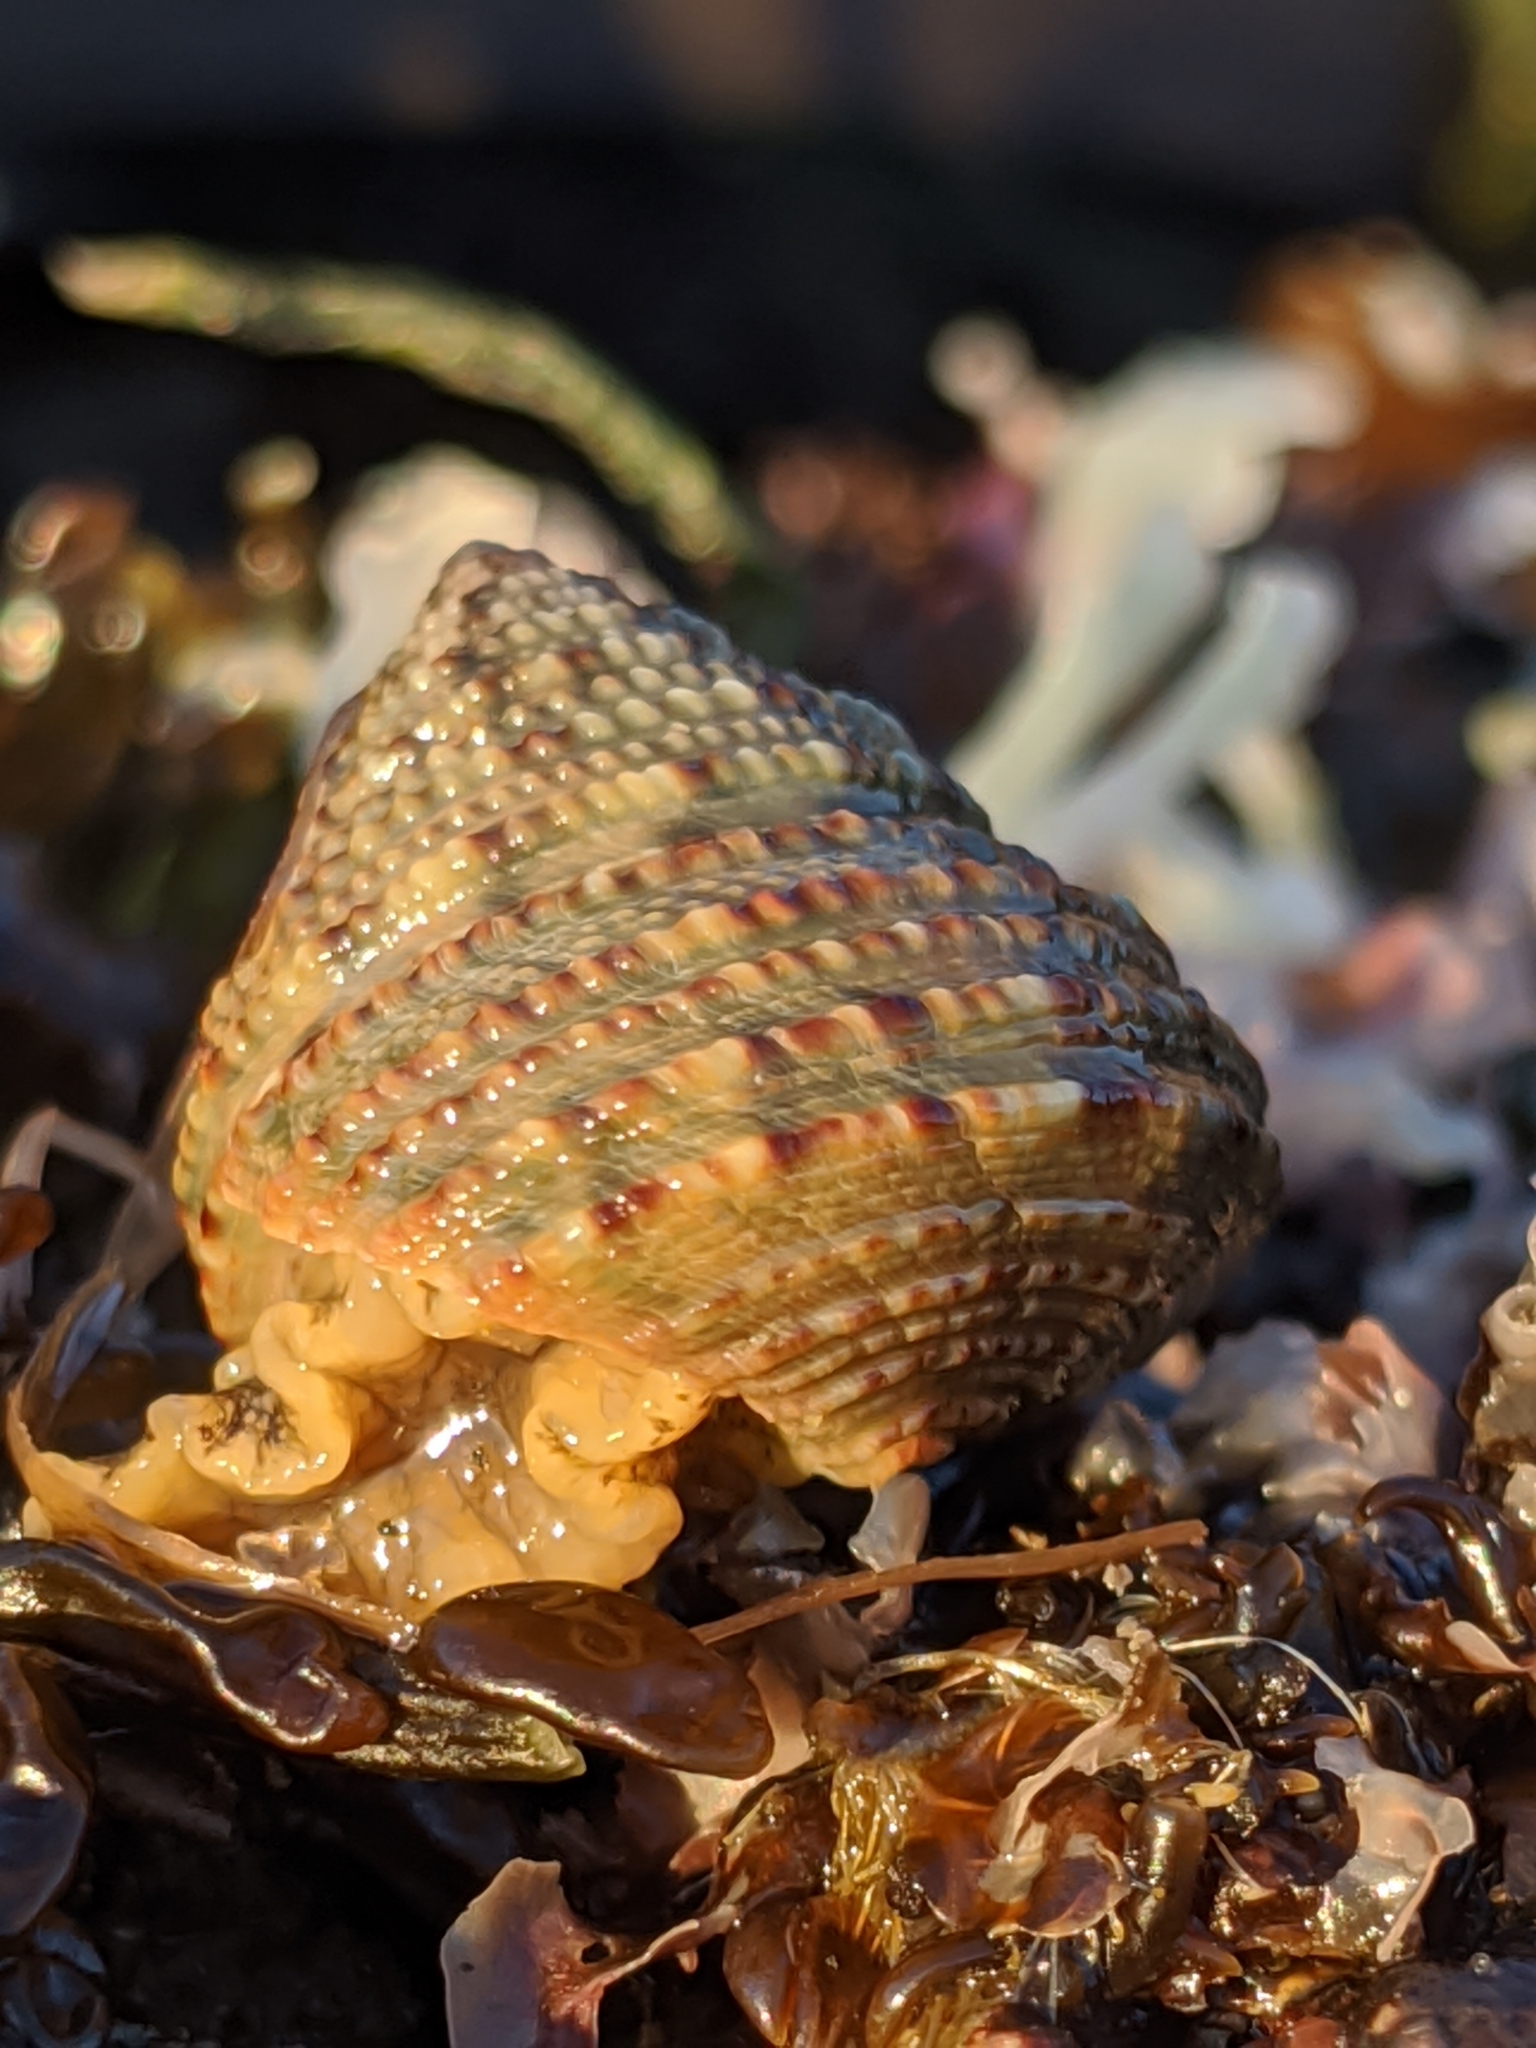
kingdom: Animalia
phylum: Mollusca
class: Gastropoda
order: Trochida
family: Calliostomatidae
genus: Calliostoma
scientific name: Calliostoma gemmulatum
